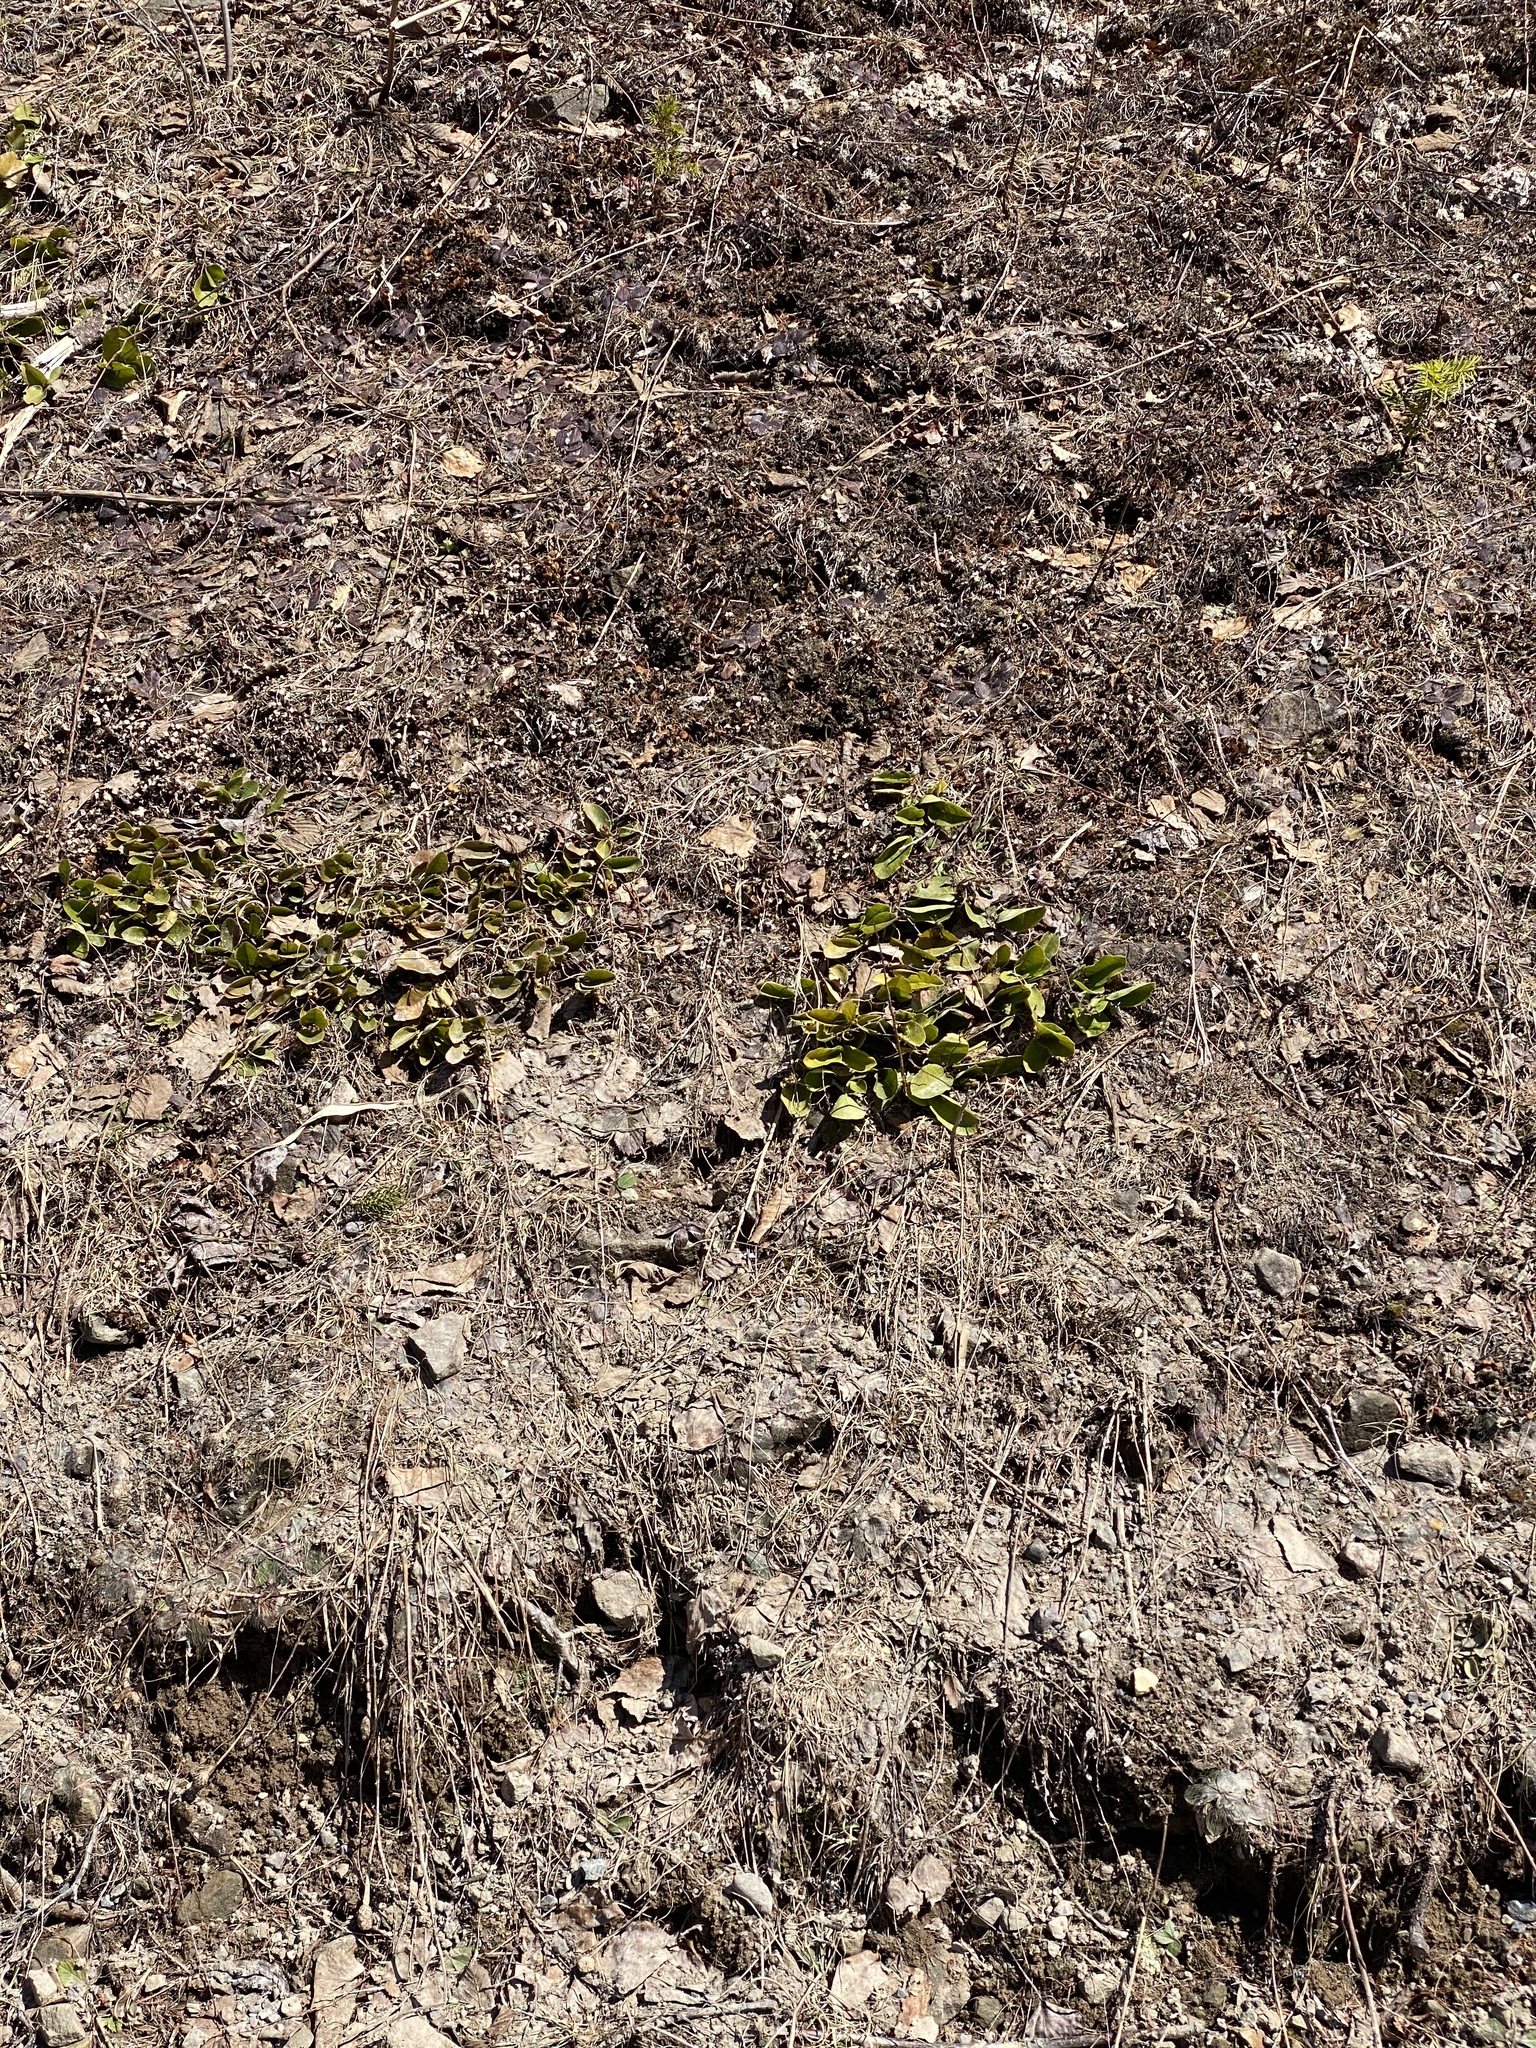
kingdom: Plantae
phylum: Tracheophyta
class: Magnoliopsida
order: Ericales
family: Ericaceae
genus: Epigaea
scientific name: Epigaea repens
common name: Gravelroot
